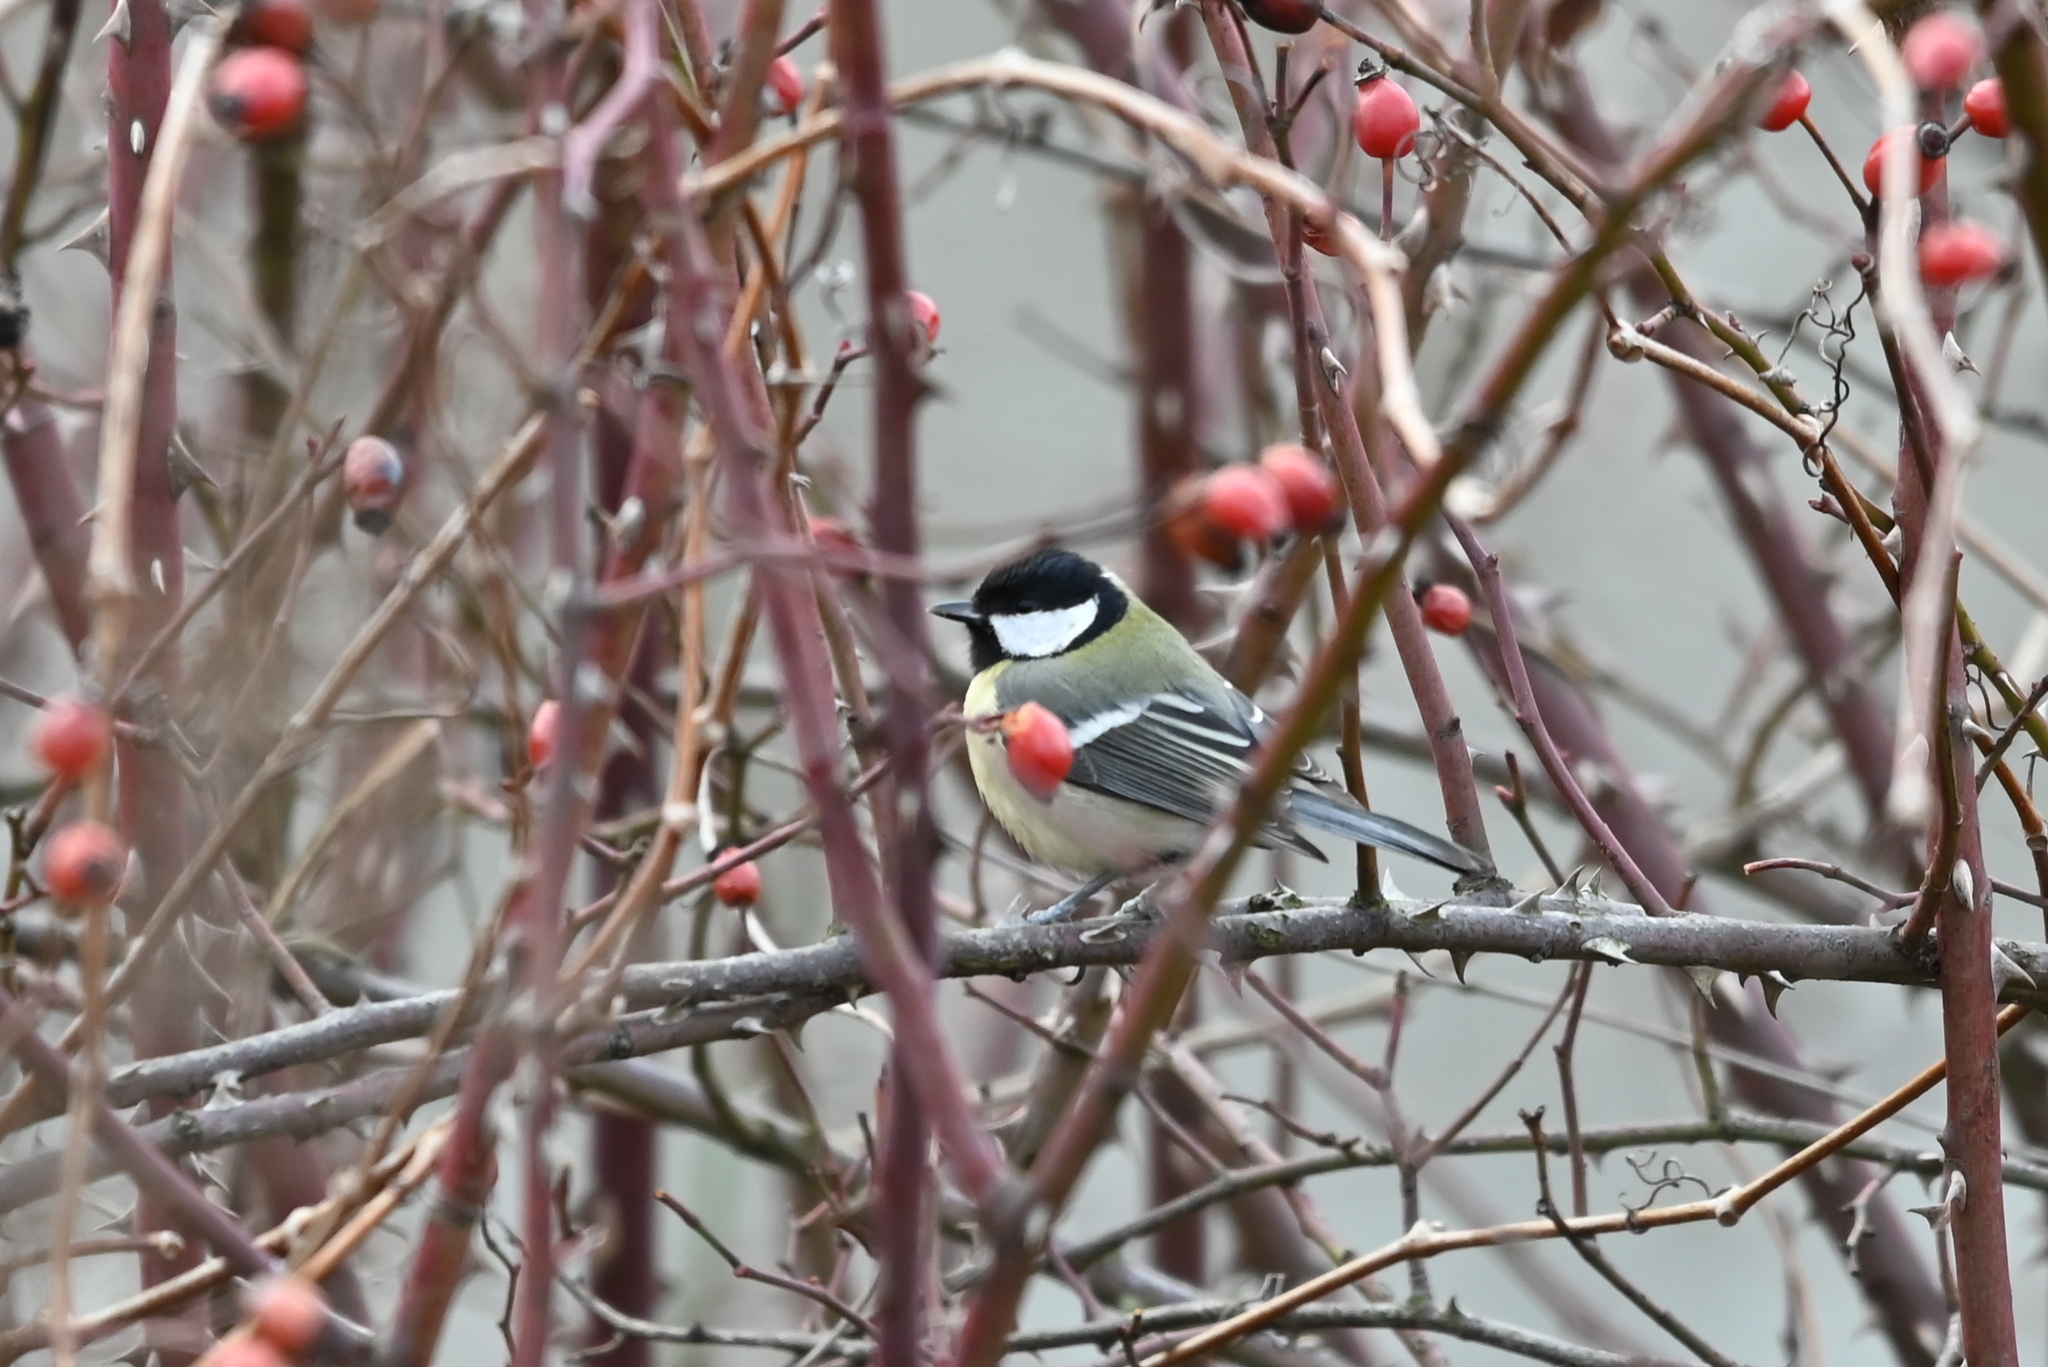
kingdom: Animalia
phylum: Chordata
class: Aves
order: Passeriformes
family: Paridae
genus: Parus
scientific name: Parus major
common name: Great tit
